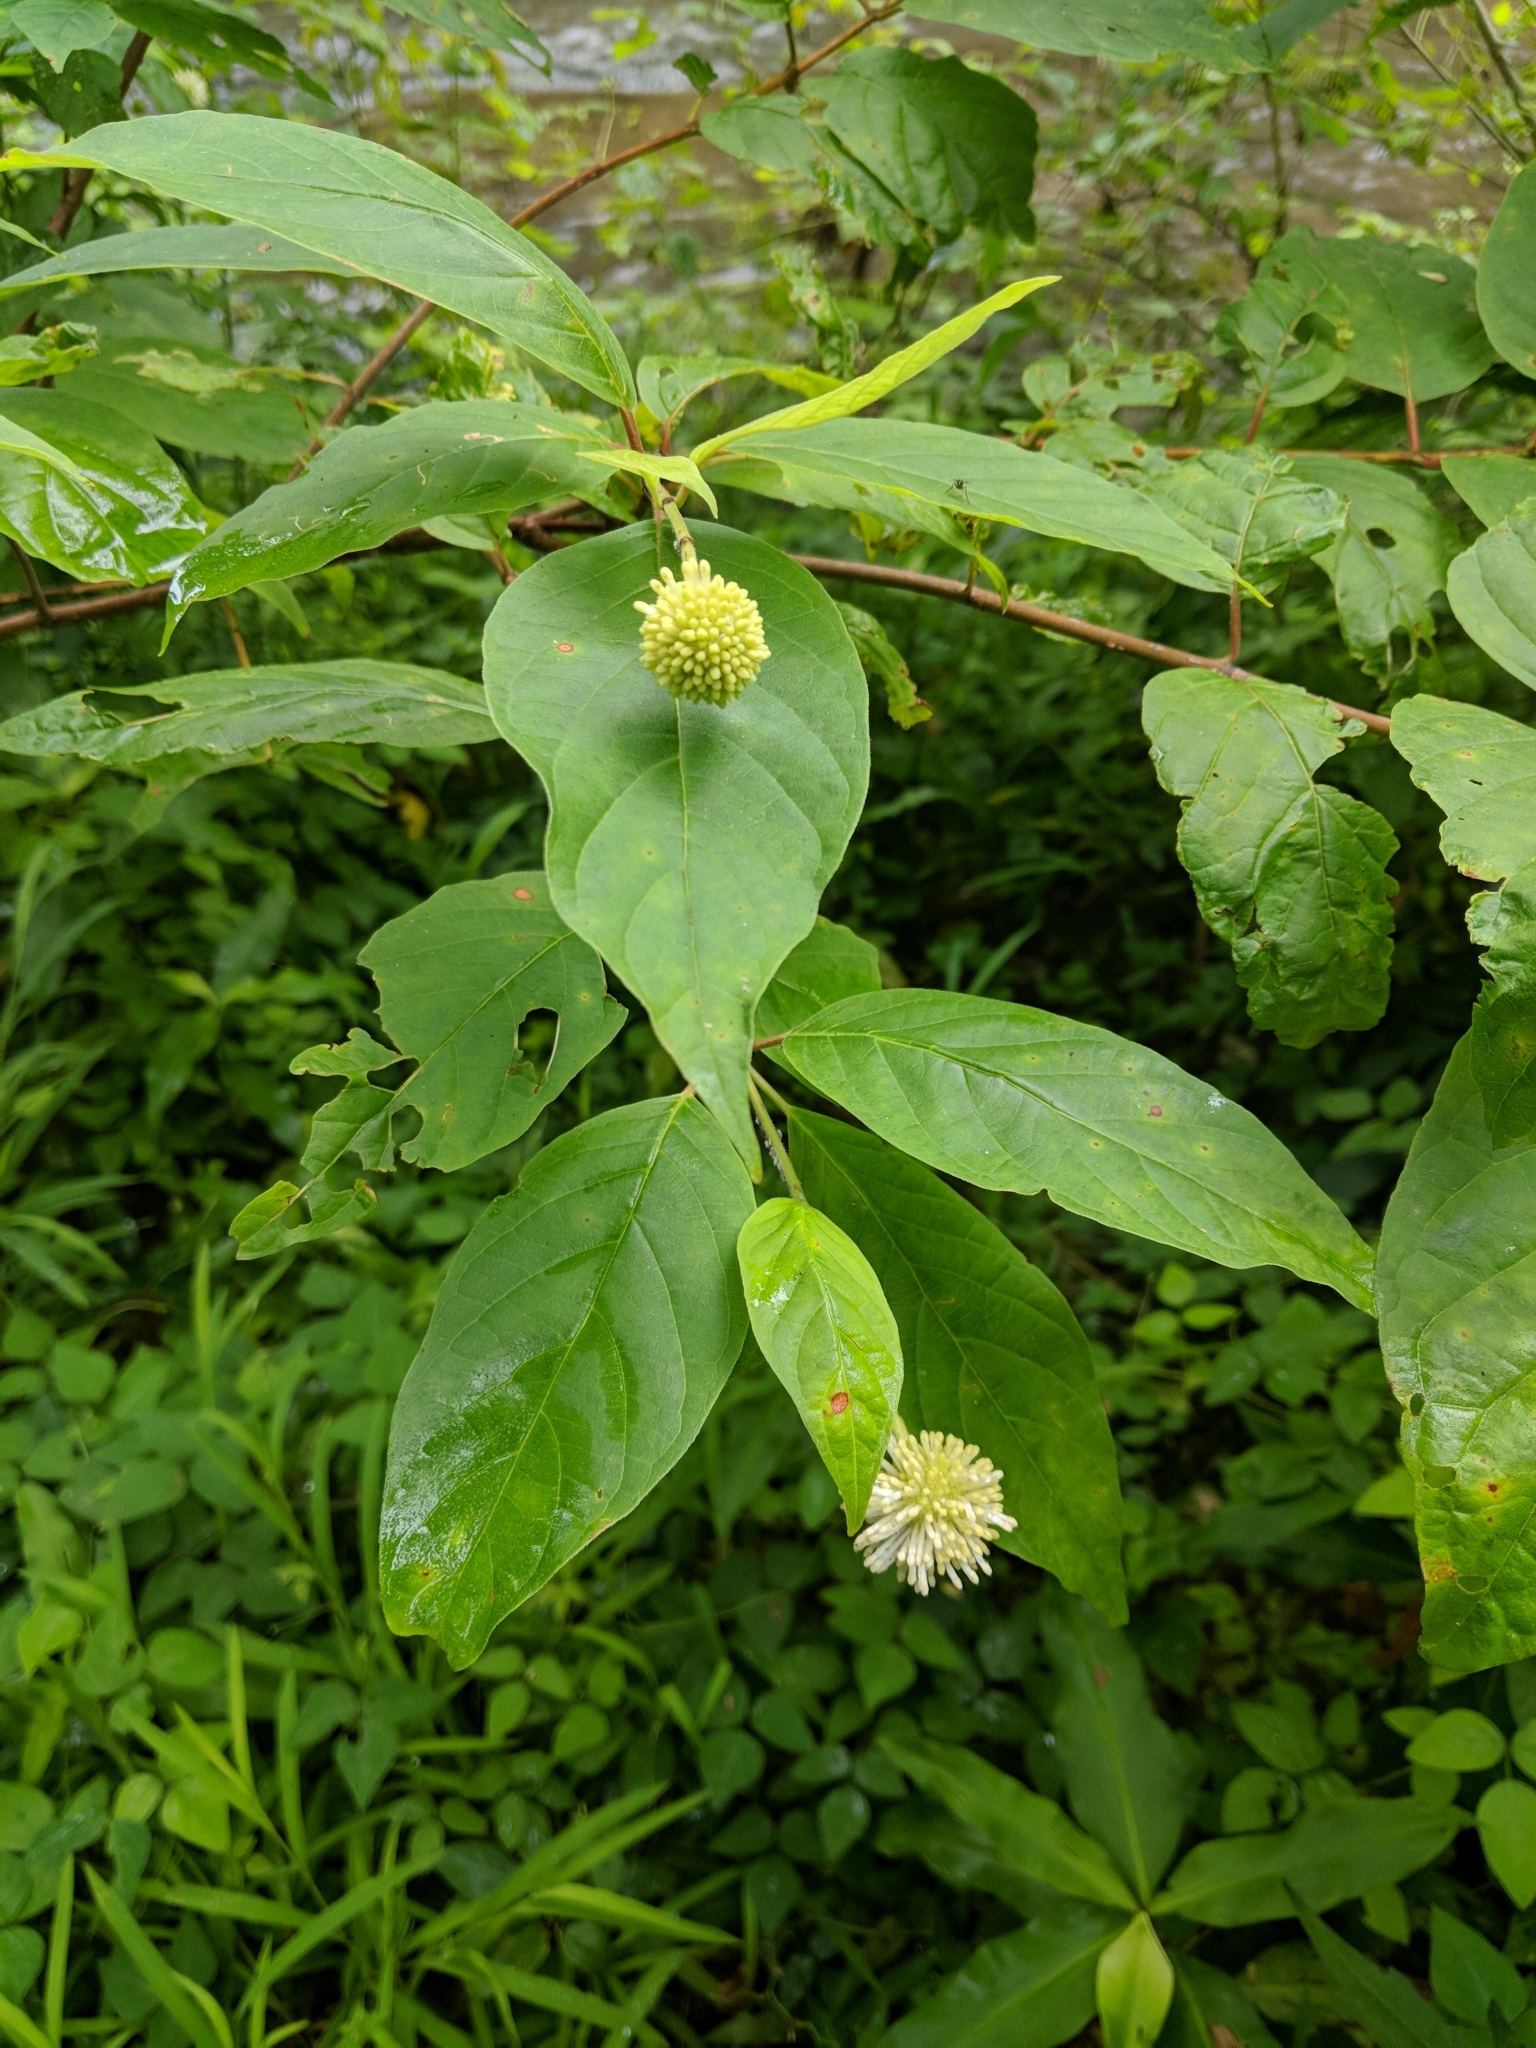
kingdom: Plantae
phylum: Tracheophyta
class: Magnoliopsida
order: Gentianales
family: Rubiaceae
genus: Cephalanthus
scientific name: Cephalanthus occidentalis
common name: Button-willow
